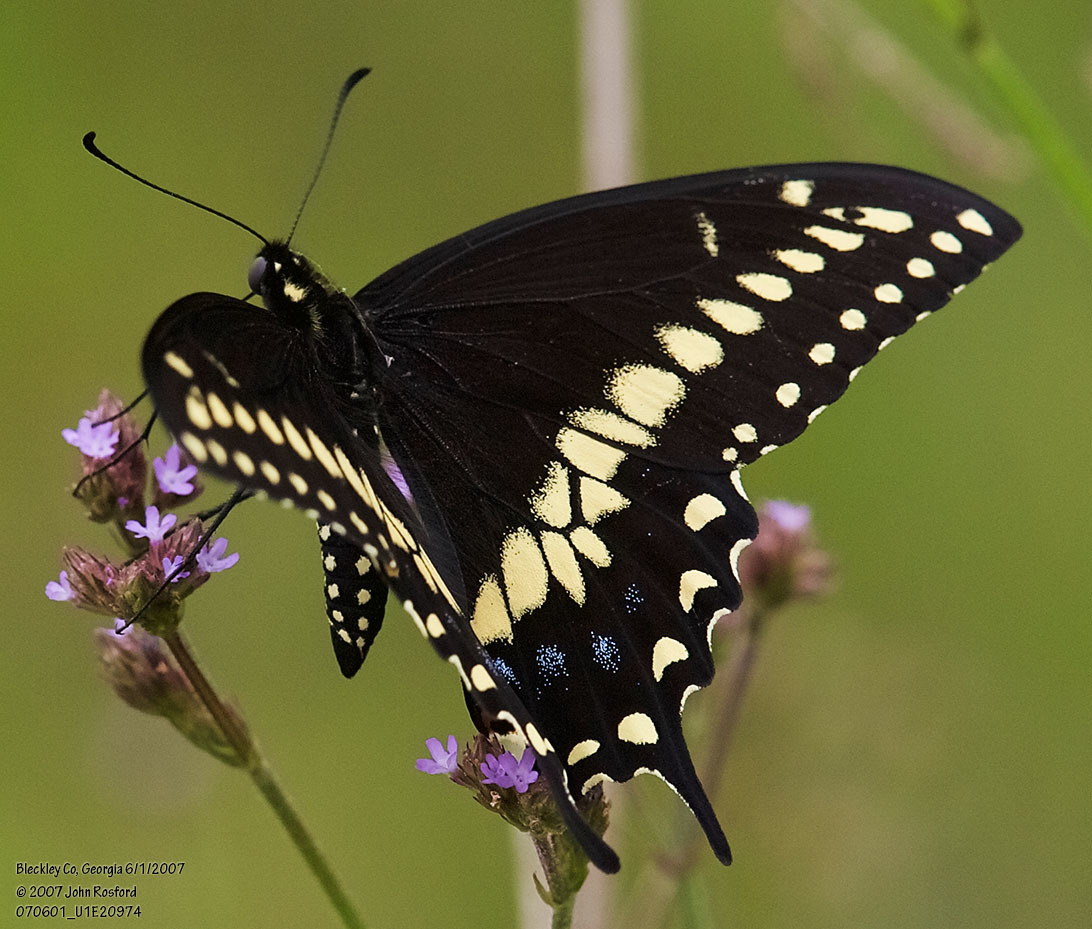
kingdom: Animalia
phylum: Arthropoda
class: Insecta
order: Lepidoptera
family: Papilionidae
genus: Papilio
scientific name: Papilio polyxenes
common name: Black swallowtail
